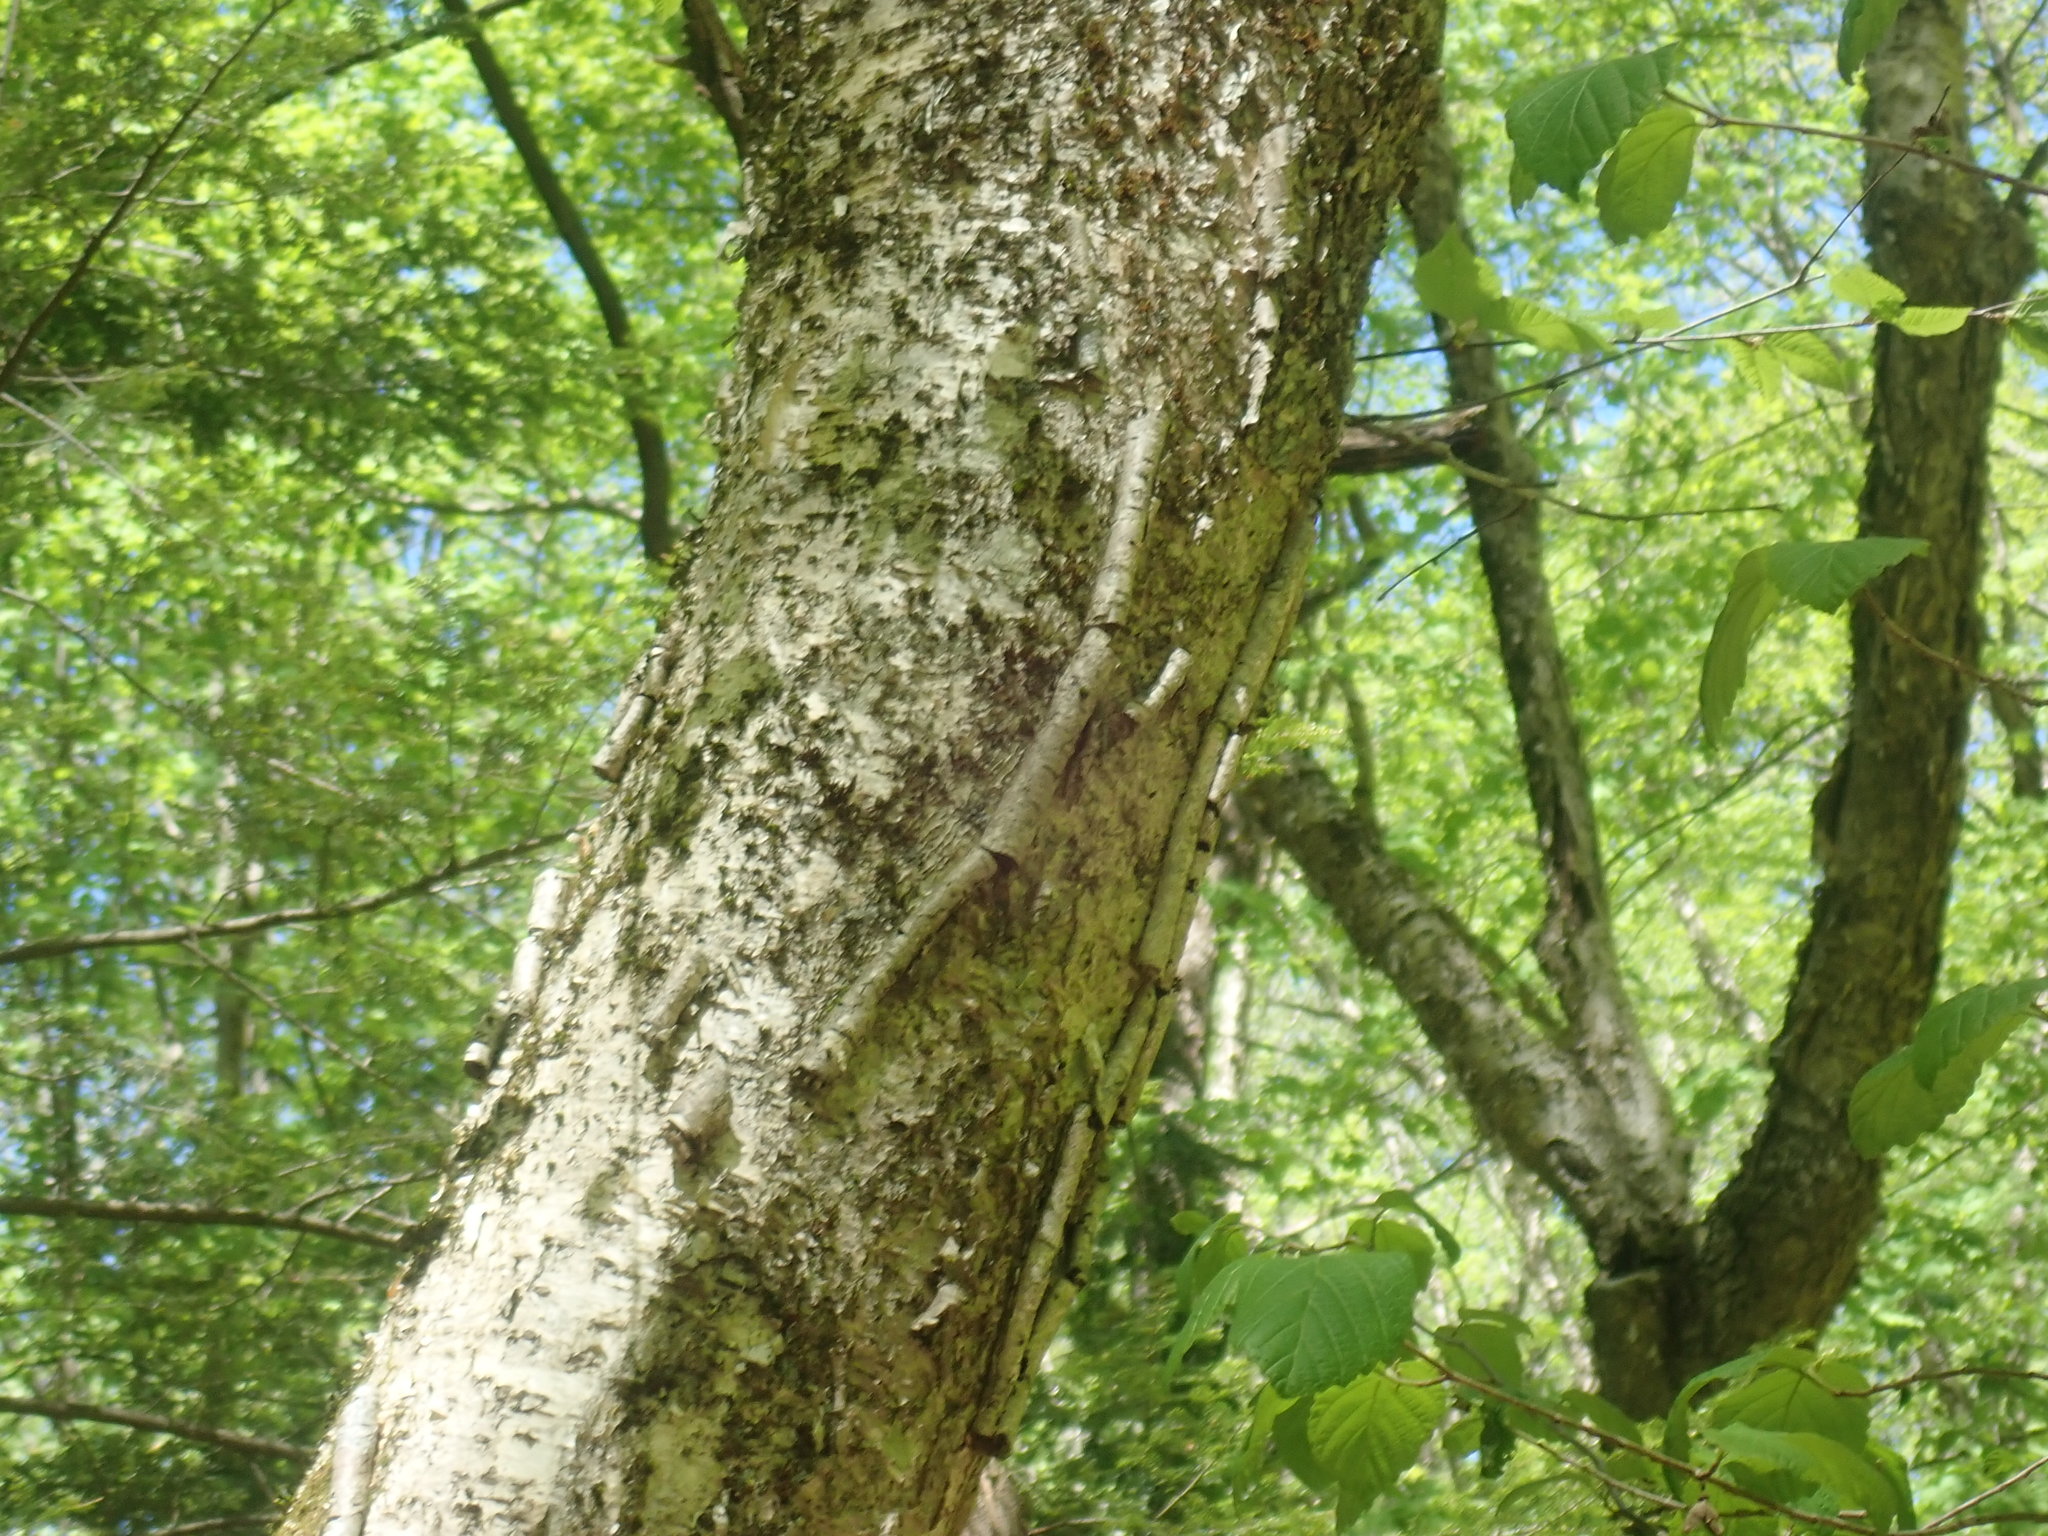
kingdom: Plantae
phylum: Tracheophyta
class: Magnoliopsida
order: Fagales
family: Betulaceae
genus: Betula
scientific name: Betula alleghaniensis
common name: Yellow birch
